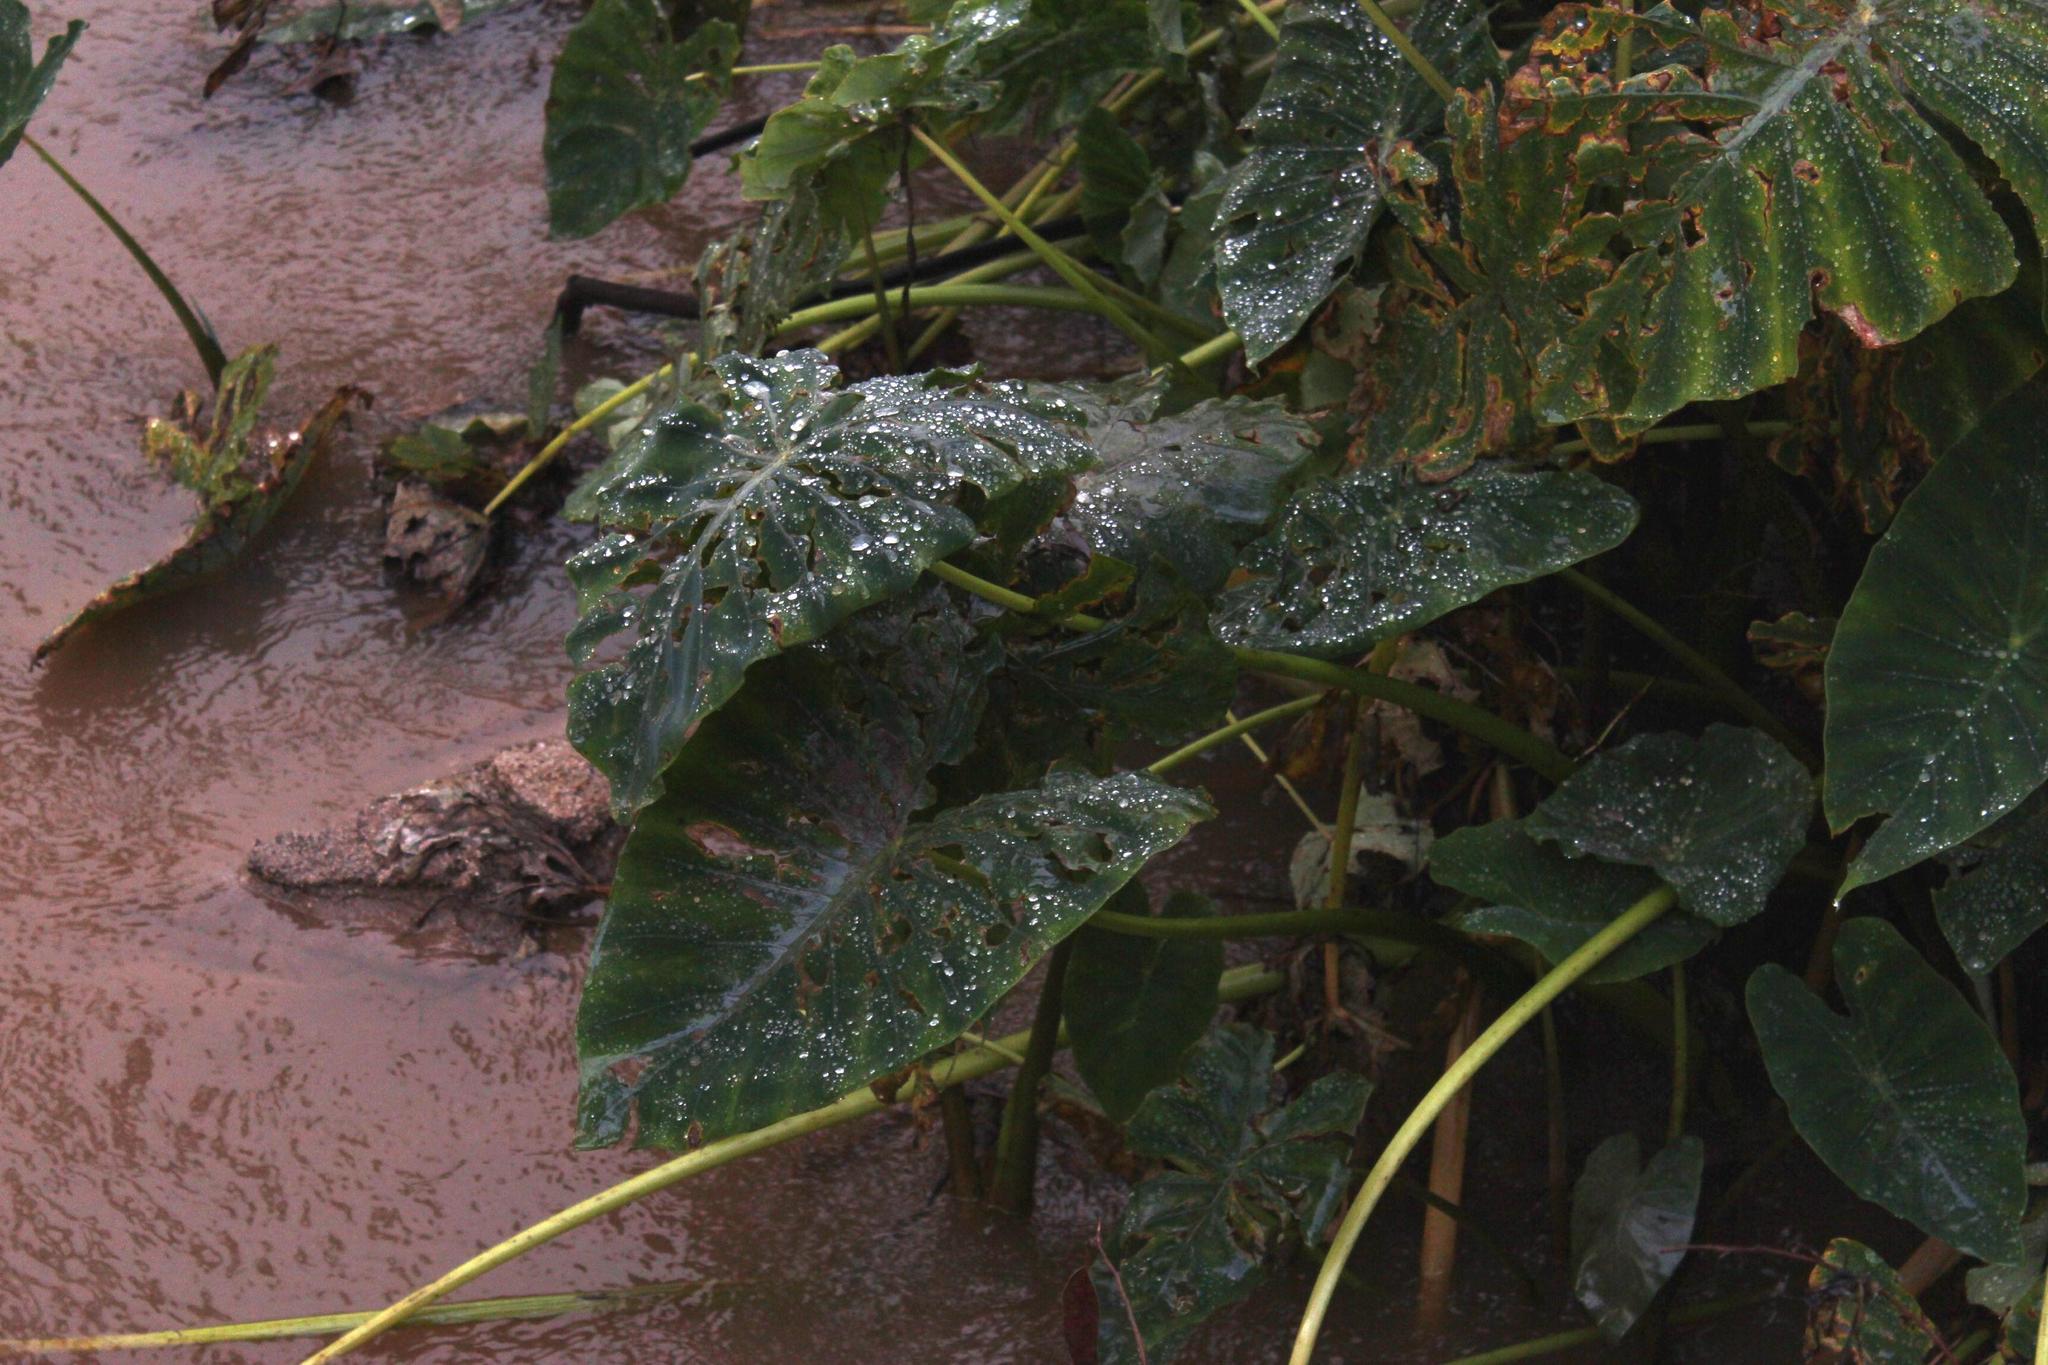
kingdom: Plantae
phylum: Tracheophyta
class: Liliopsida
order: Alismatales
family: Araceae
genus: Colocasia
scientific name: Colocasia esculenta
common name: Taro
